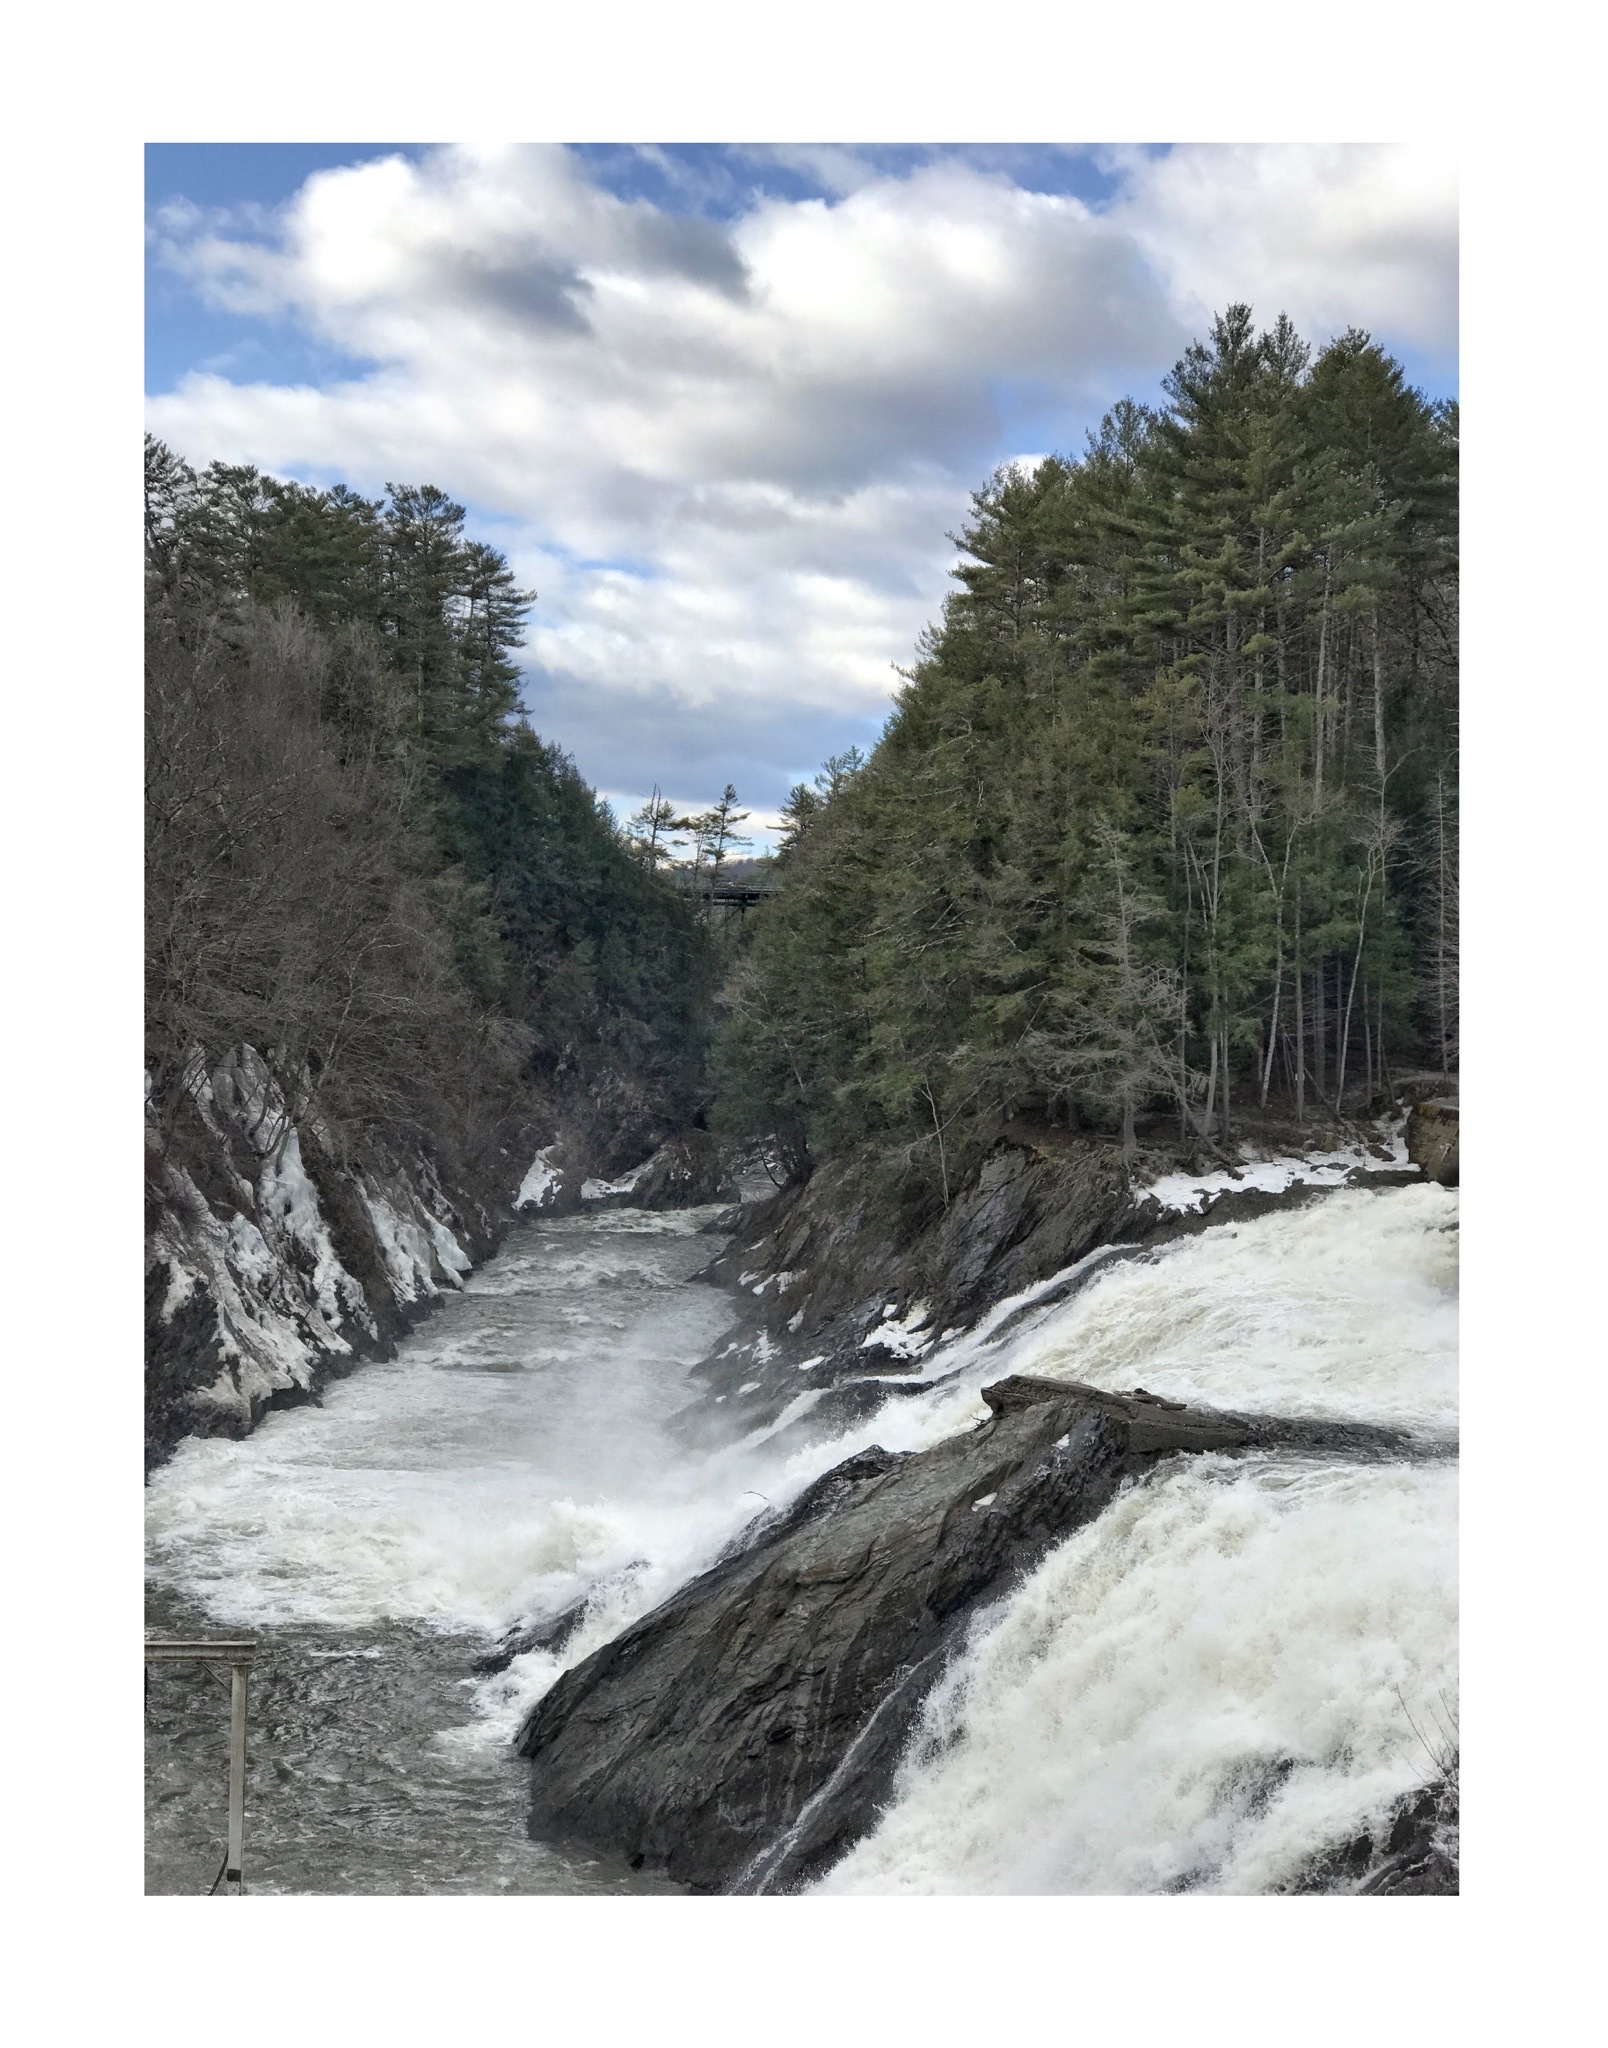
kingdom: Plantae
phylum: Tracheophyta
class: Pinopsida
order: Pinales
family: Pinaceae
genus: Pinus
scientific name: Pinus strobus
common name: Weymouth pine
